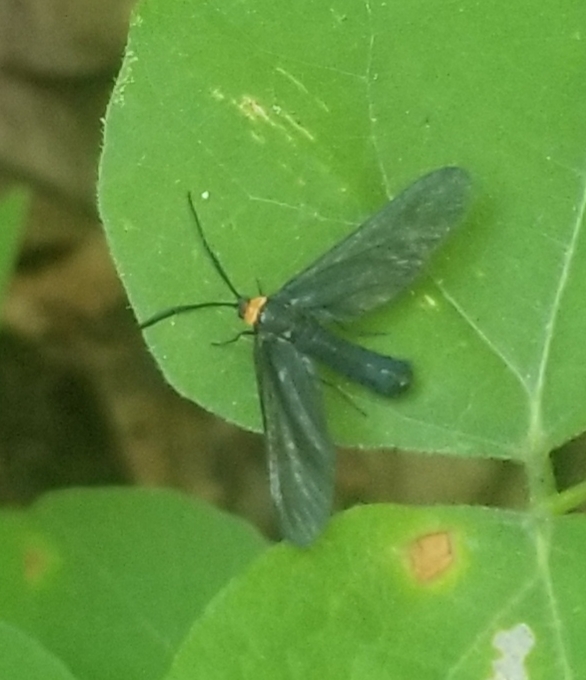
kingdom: Animalia
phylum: Arthropoda
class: Insecta
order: Lepidoptera
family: Zygaenidae
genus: Harrisina
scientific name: Harrisina americana
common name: Grapeleaf skeletonizer moth
